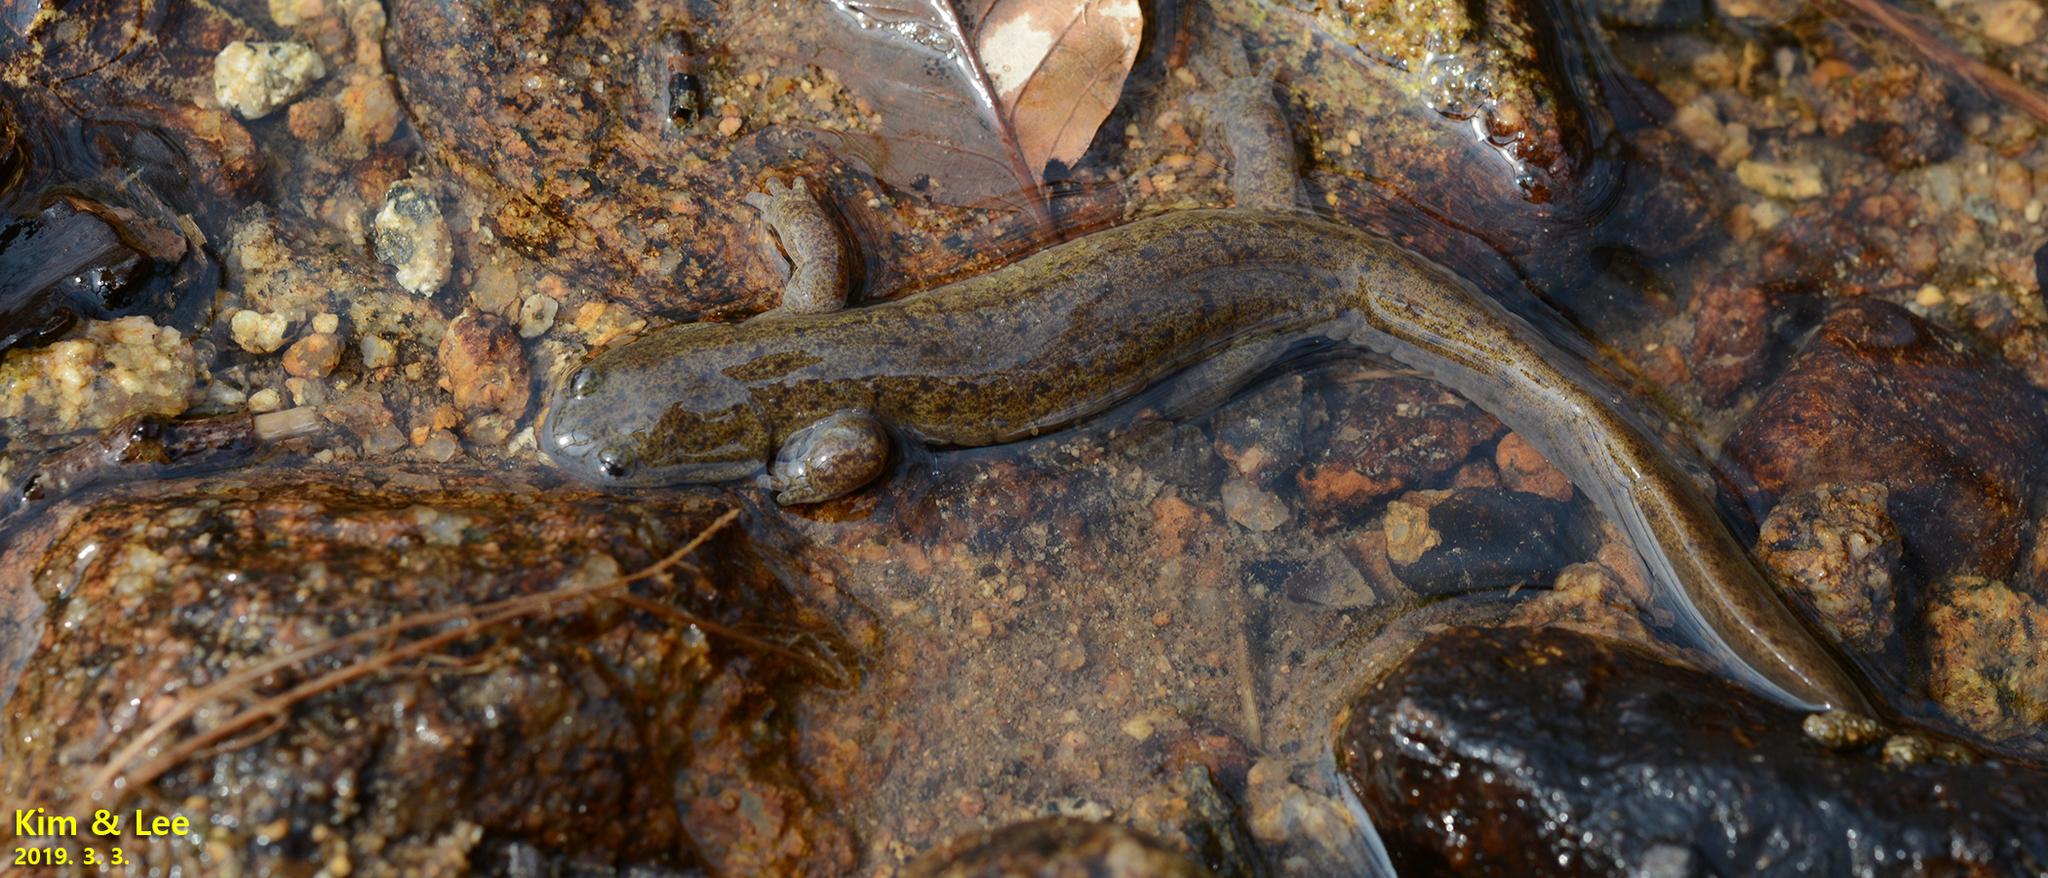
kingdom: Animalia
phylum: Chordata
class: Amphibia
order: Caudata
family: Hynobiidae
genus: Hynobius
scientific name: Hynobius perplicatus
